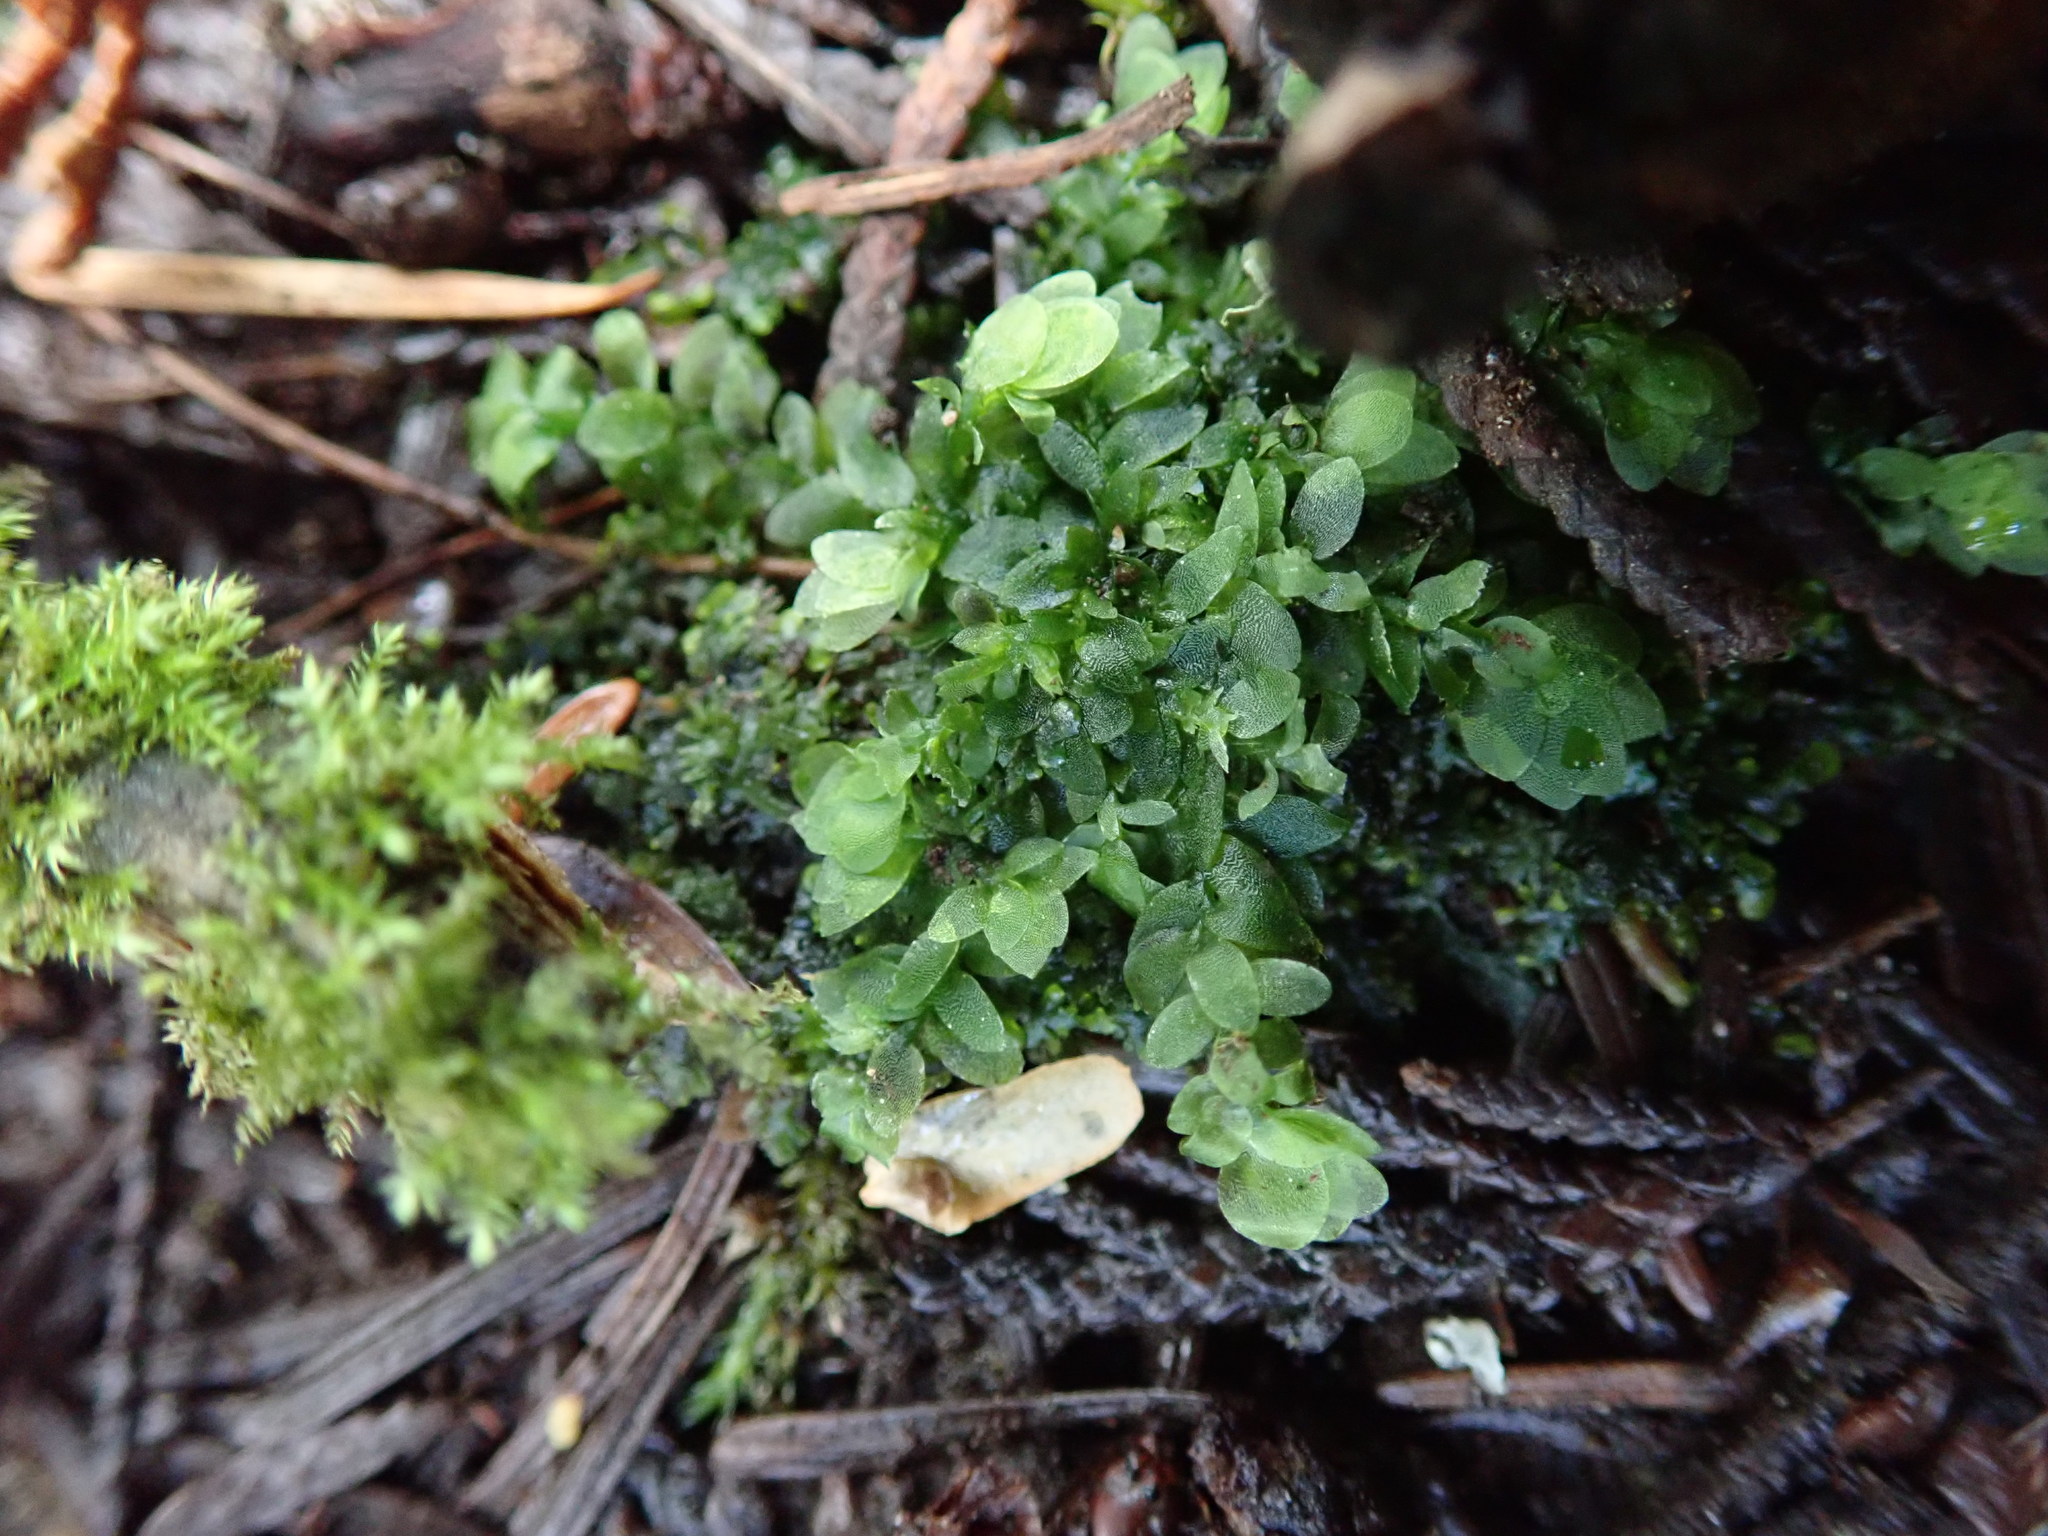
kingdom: Plantae
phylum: Bryophyta
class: Bryopsida
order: Hookeriales
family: Hookeriaceae
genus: Hookeria
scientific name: Hookeria lucens
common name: Shining hookeria
